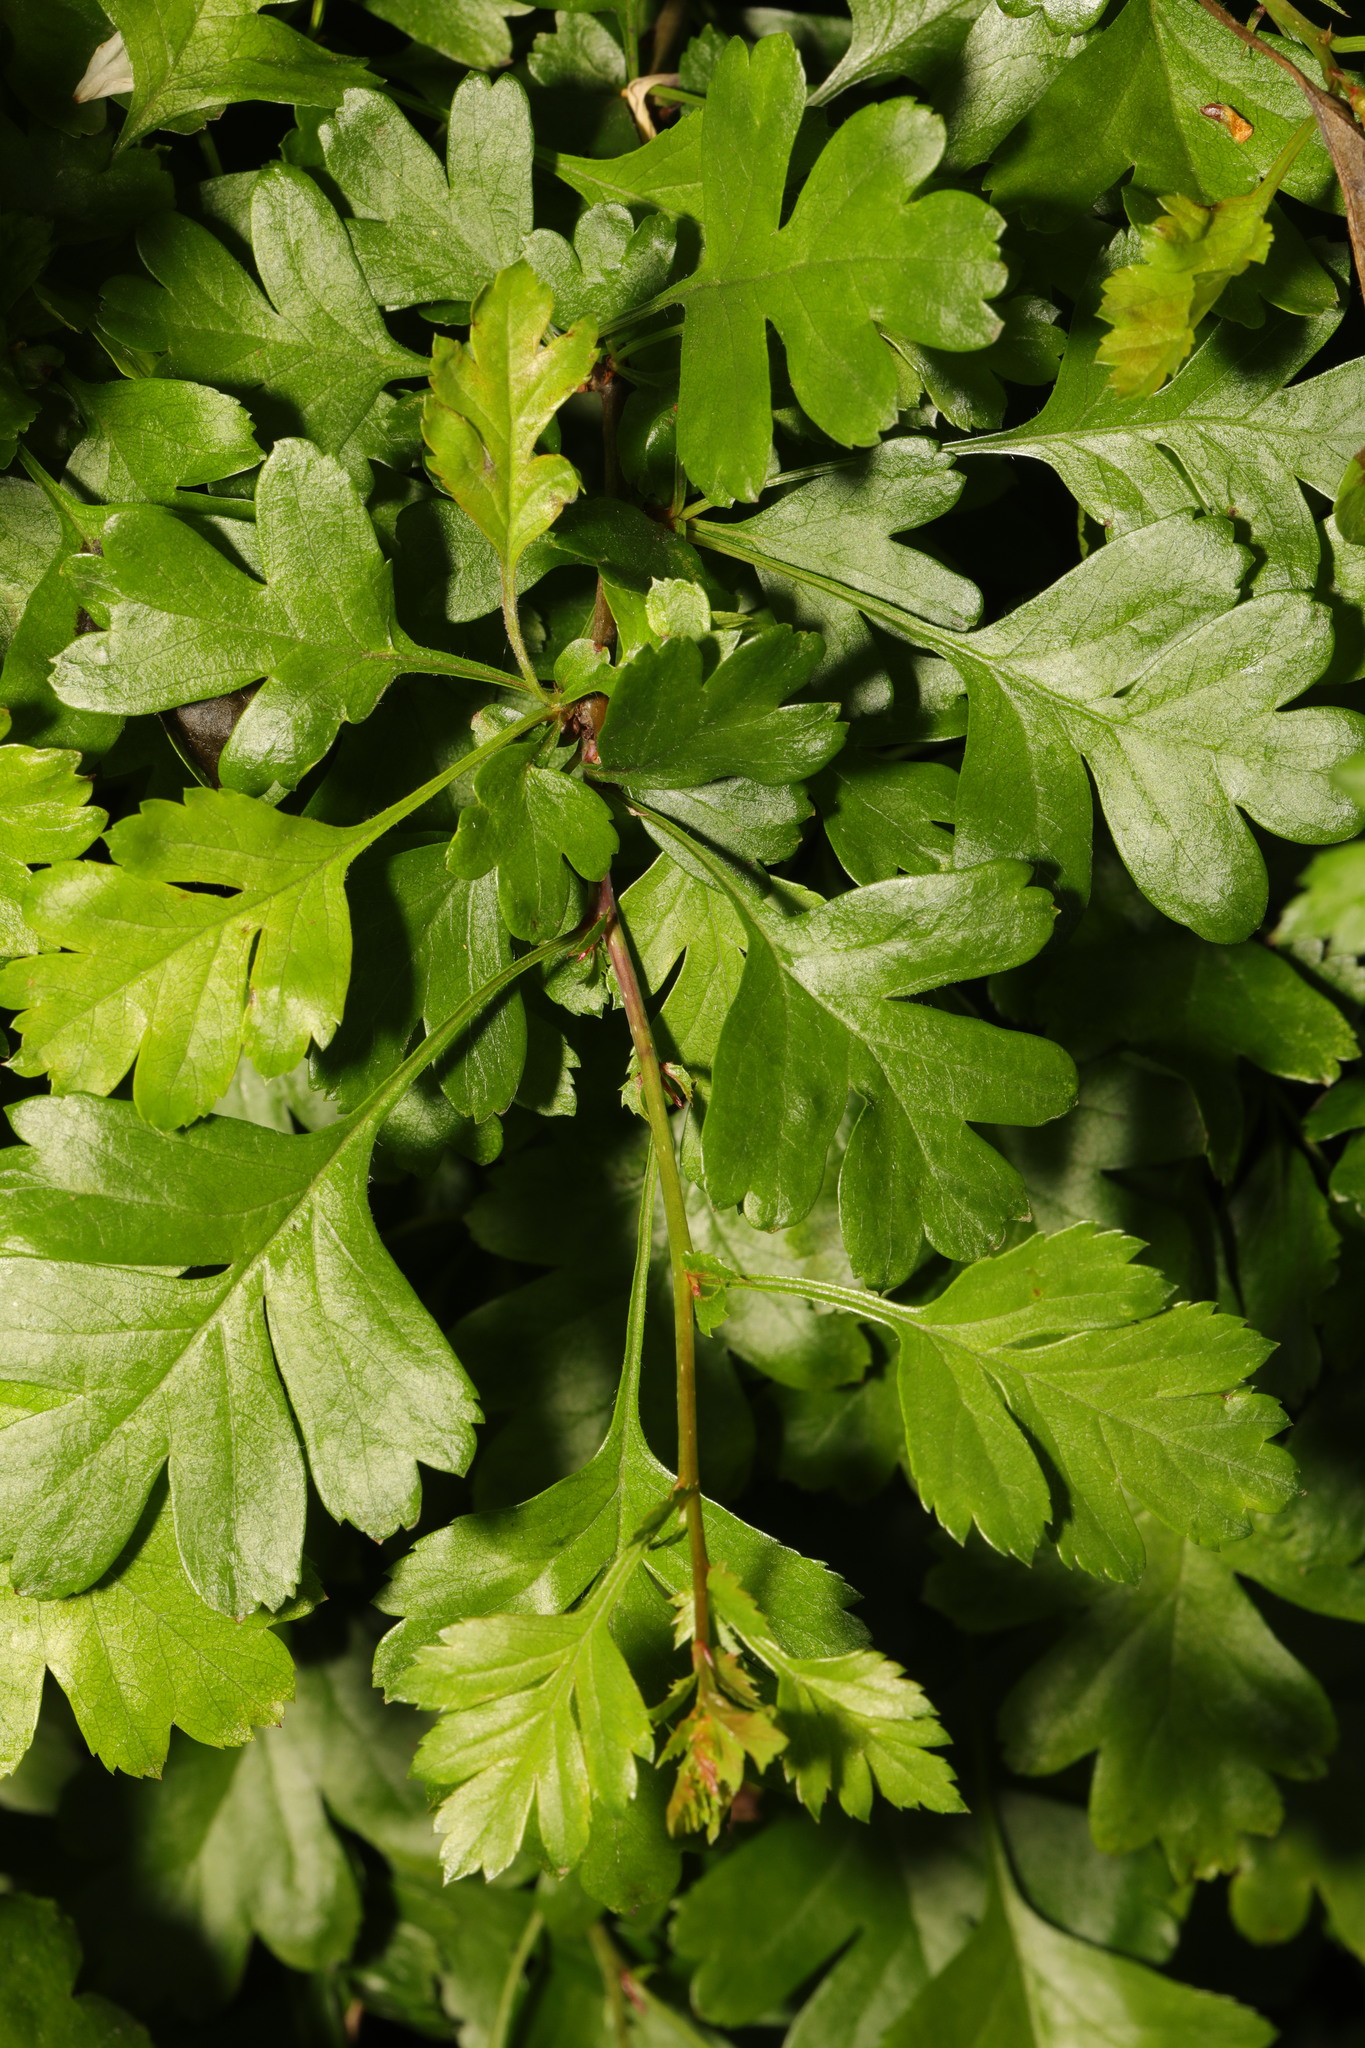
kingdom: Plantae
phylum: Tracheophyta
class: Magnoliopsida
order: Rosales
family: Rosaceae
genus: Crataegus
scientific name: Crataegus monogyna
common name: Hawthorn
